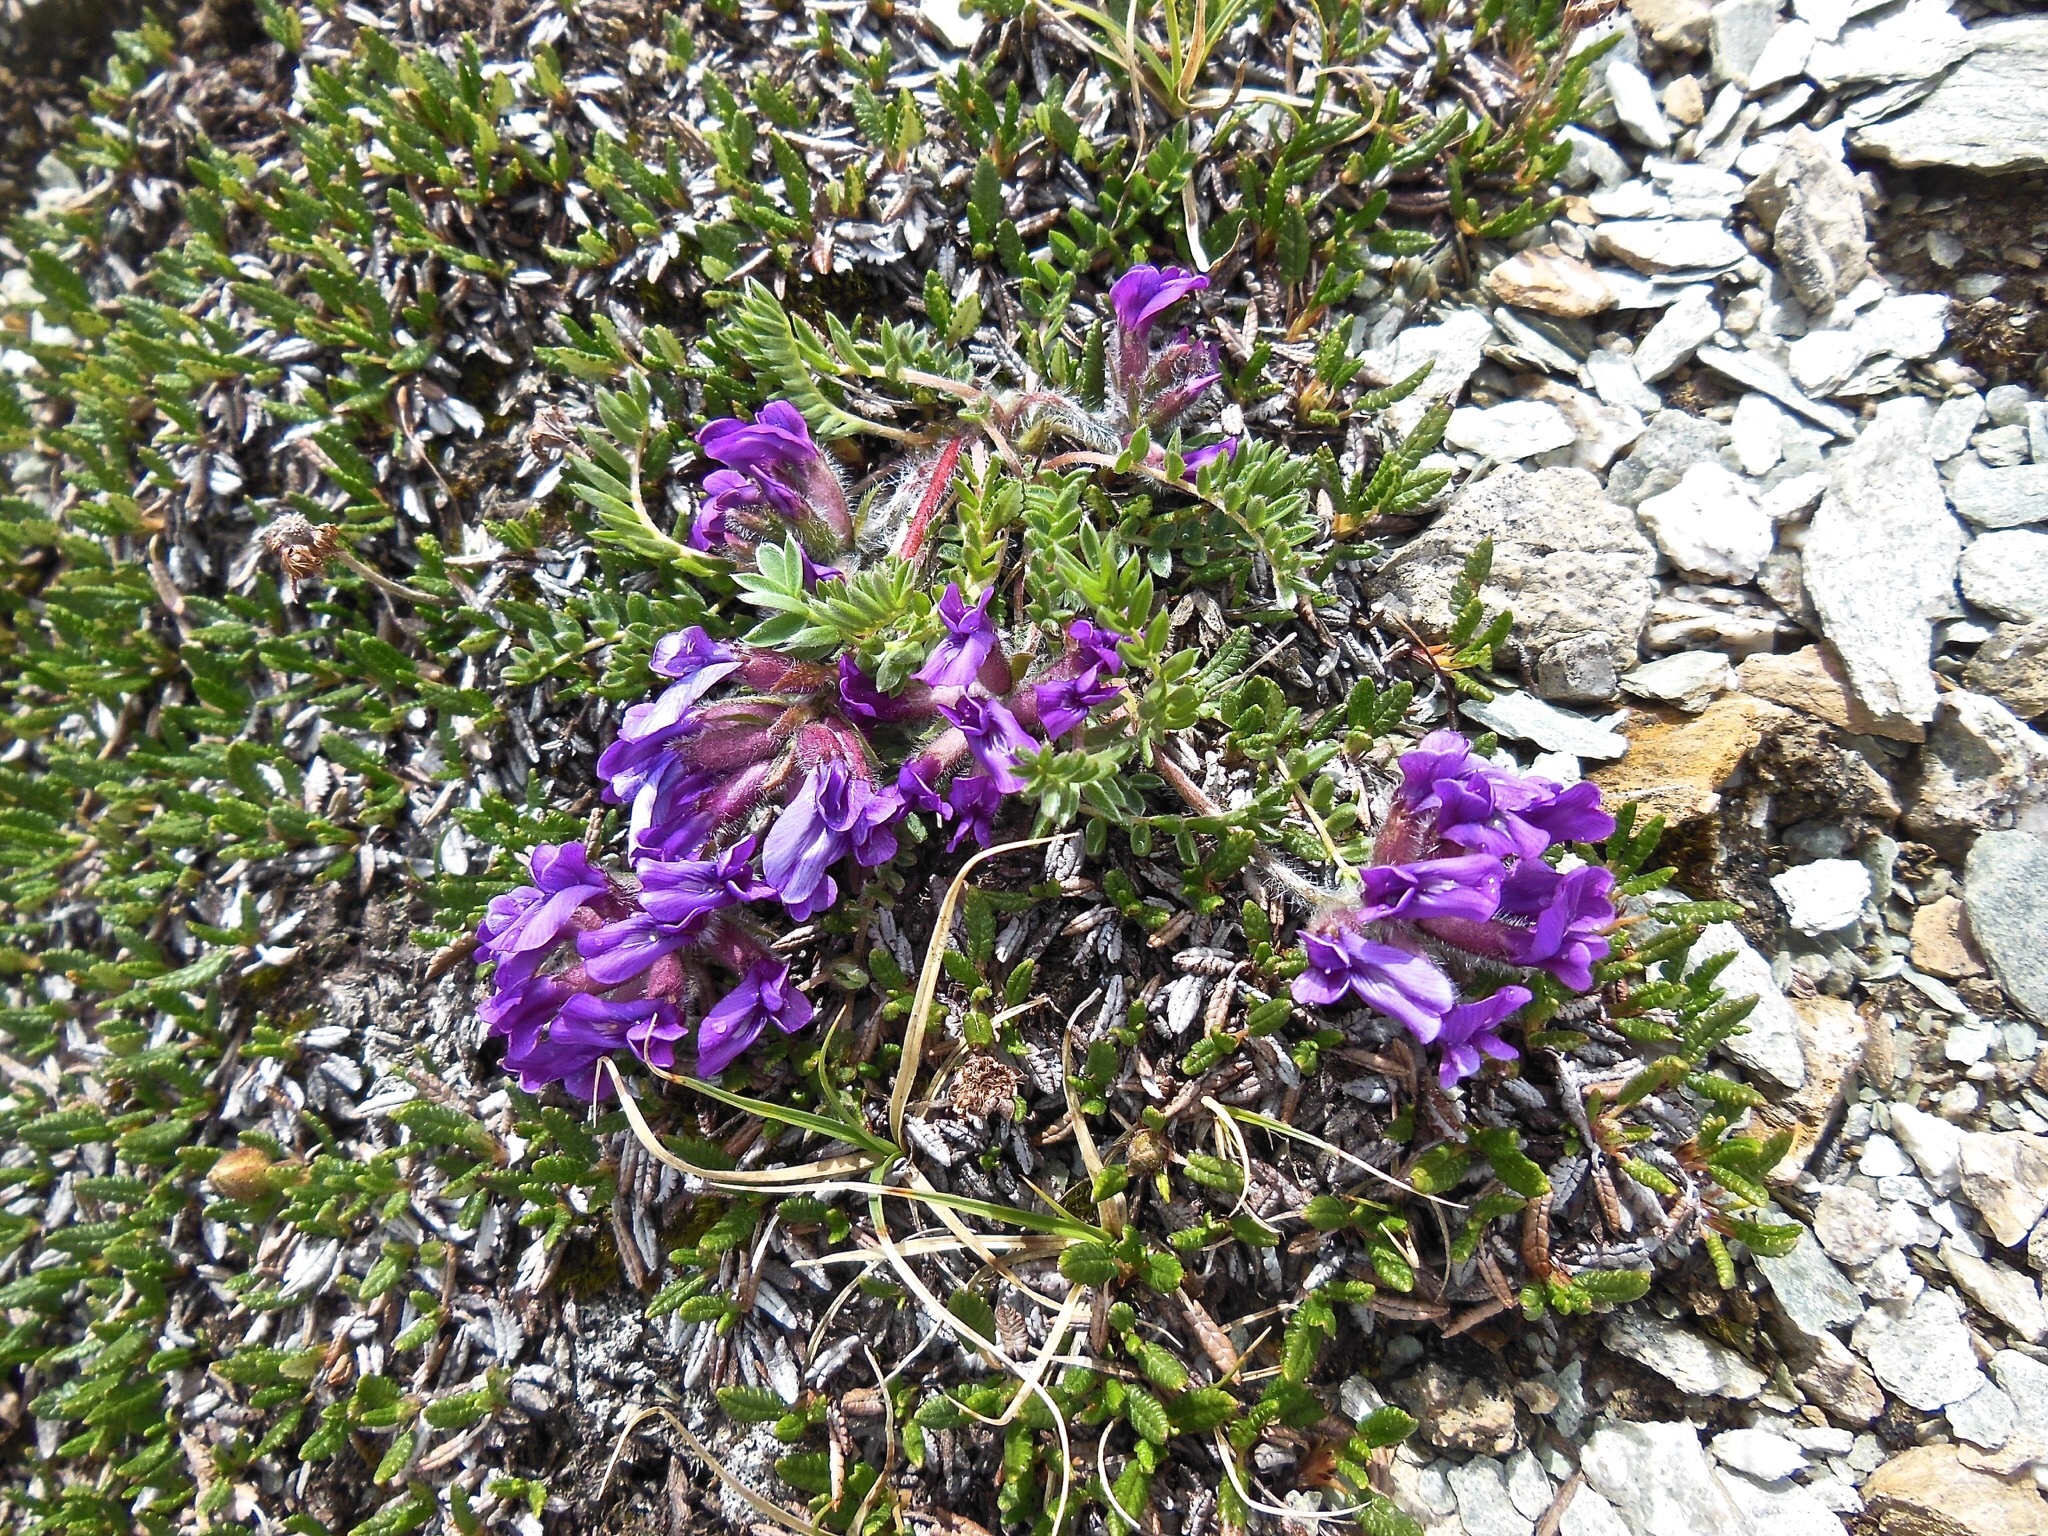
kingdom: Plantae
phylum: Tracheophyta
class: Magnoliopsida
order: Fabales
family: Fabaceae
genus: Oxytropis
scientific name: Oxytropis halleri
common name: Purple oxytropis
